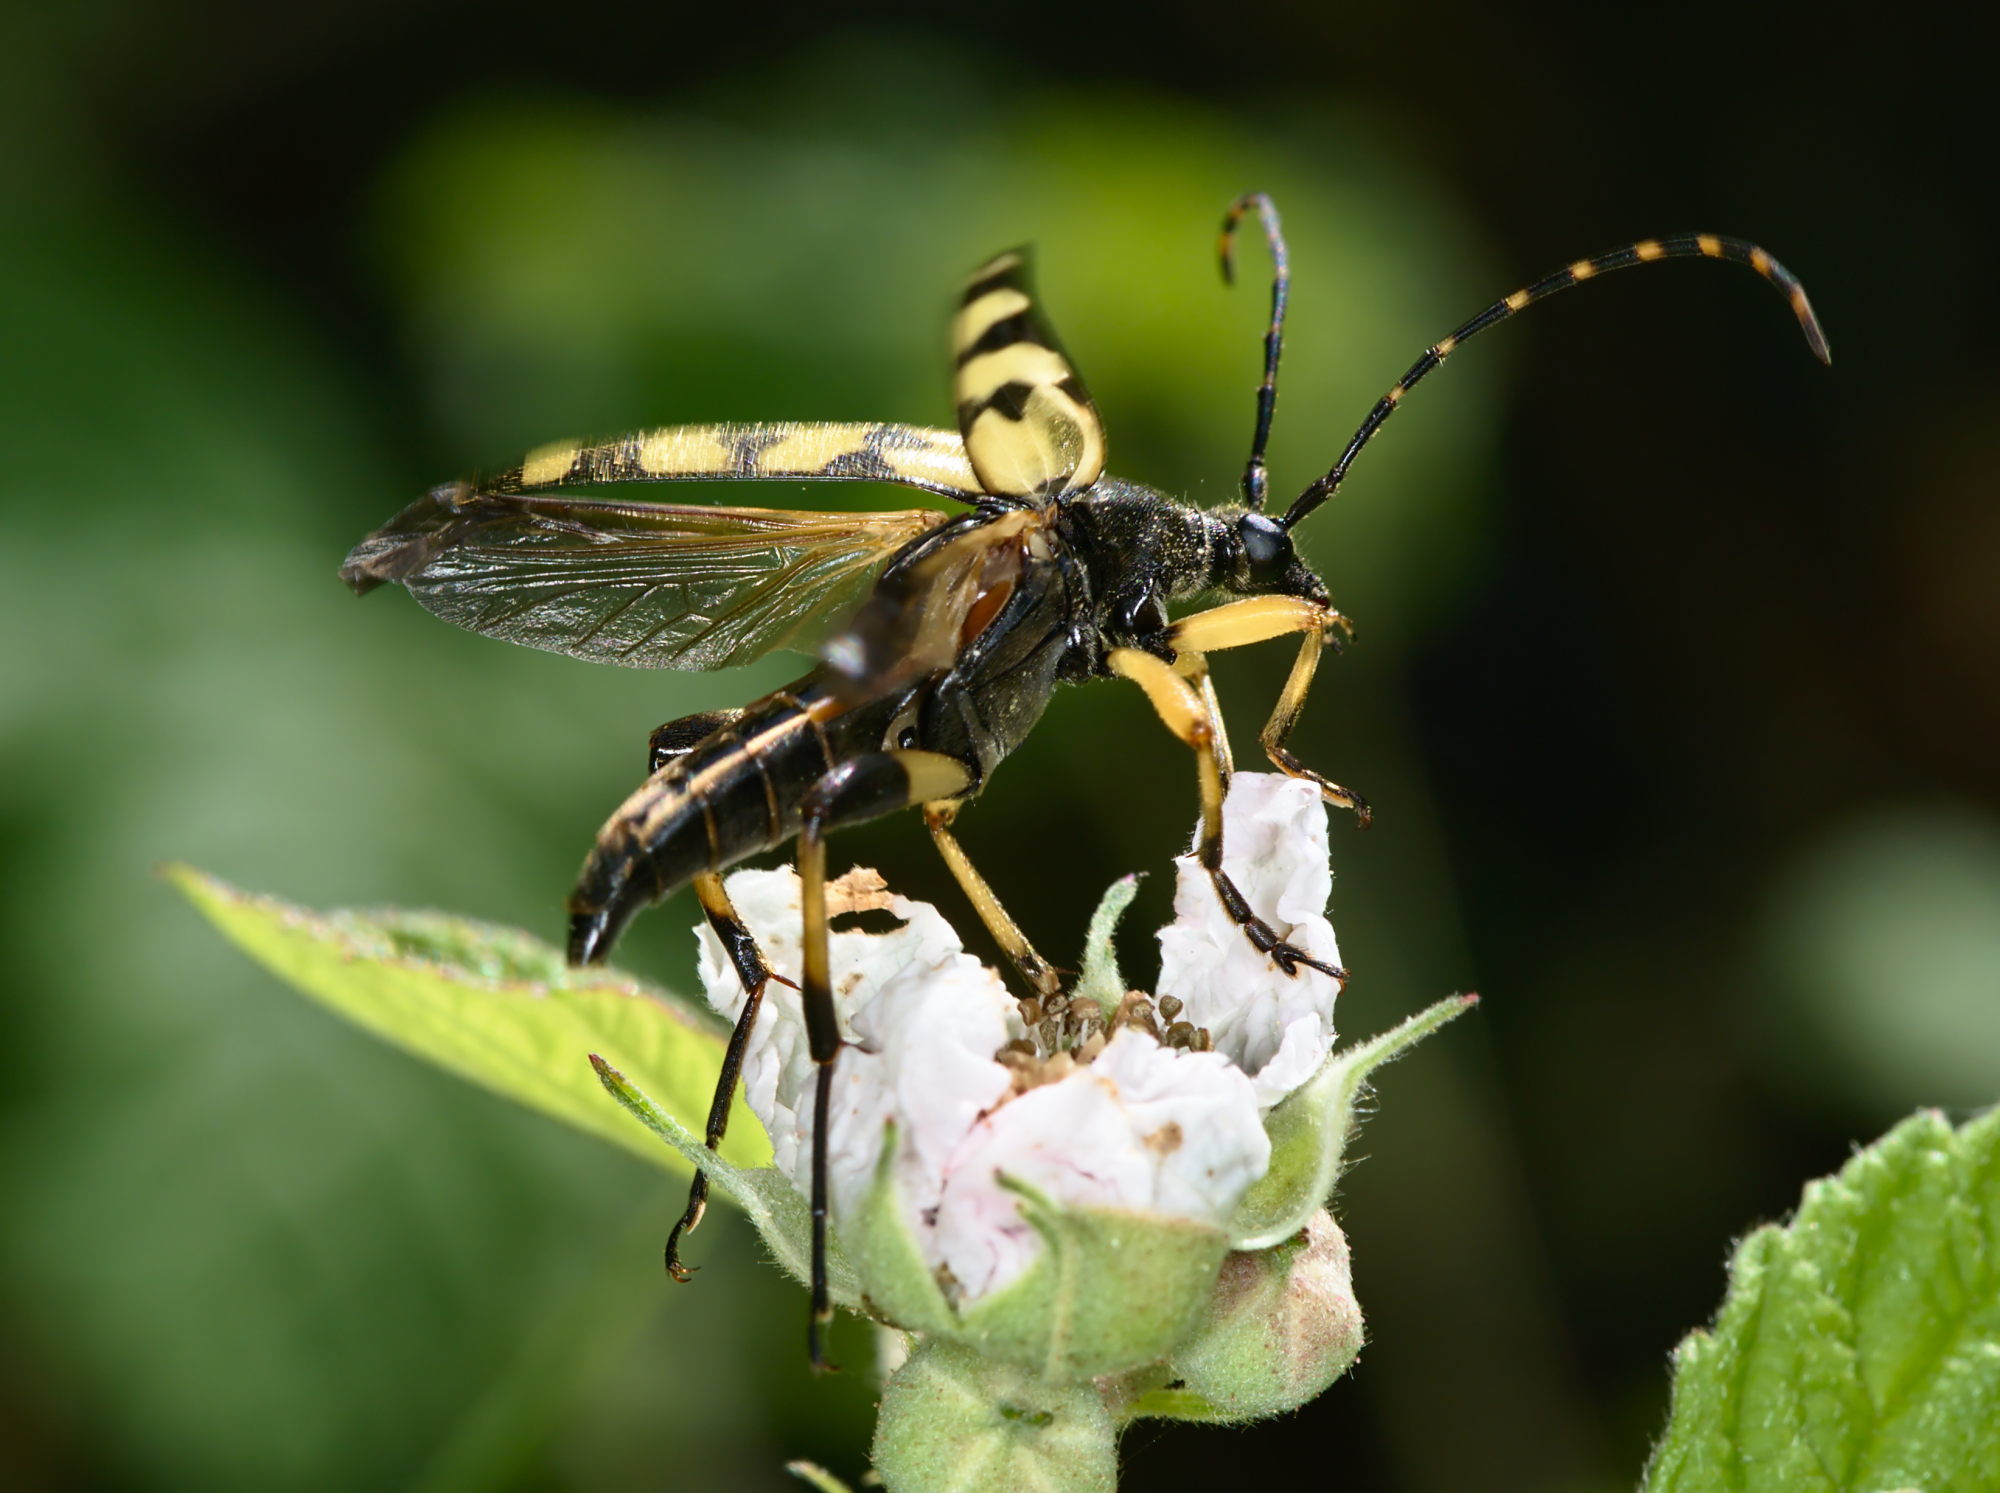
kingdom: Animalia
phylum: Arthropoda
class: Insecta
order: Coleoptera
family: Cerambycidae
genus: Rutpela
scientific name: Rutpela maculata
